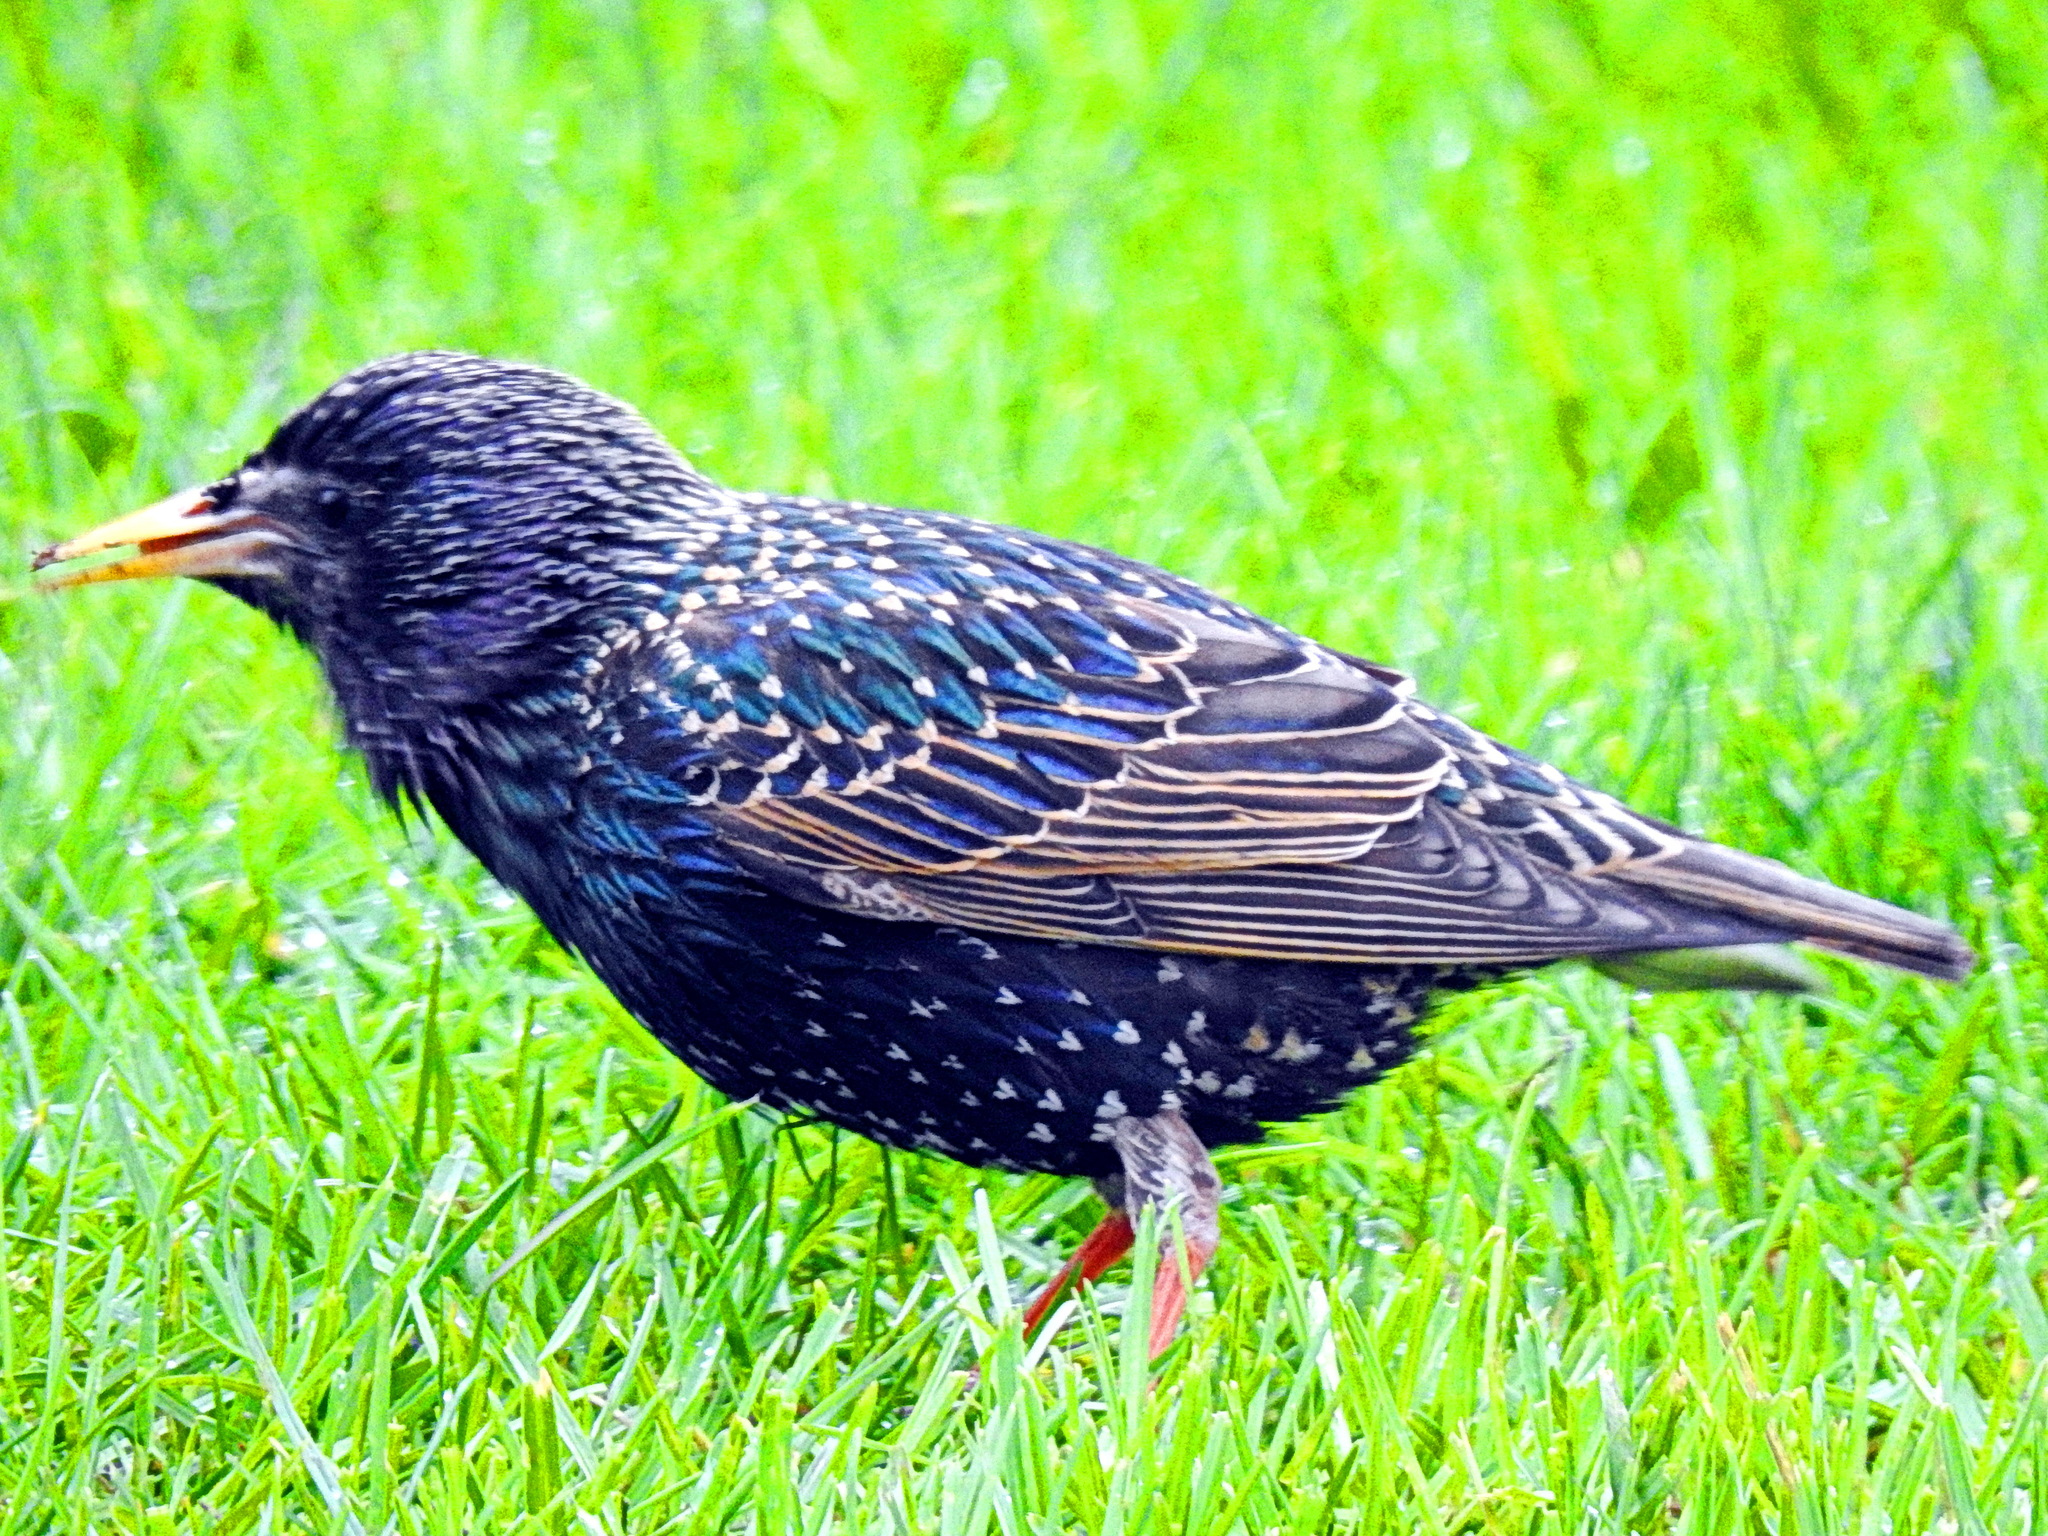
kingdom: Animalia
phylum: Chordata
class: Aves
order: Passeriformes
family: Sturnidae
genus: Sturnus
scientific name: Sturnus vulgaris
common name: Common starling
